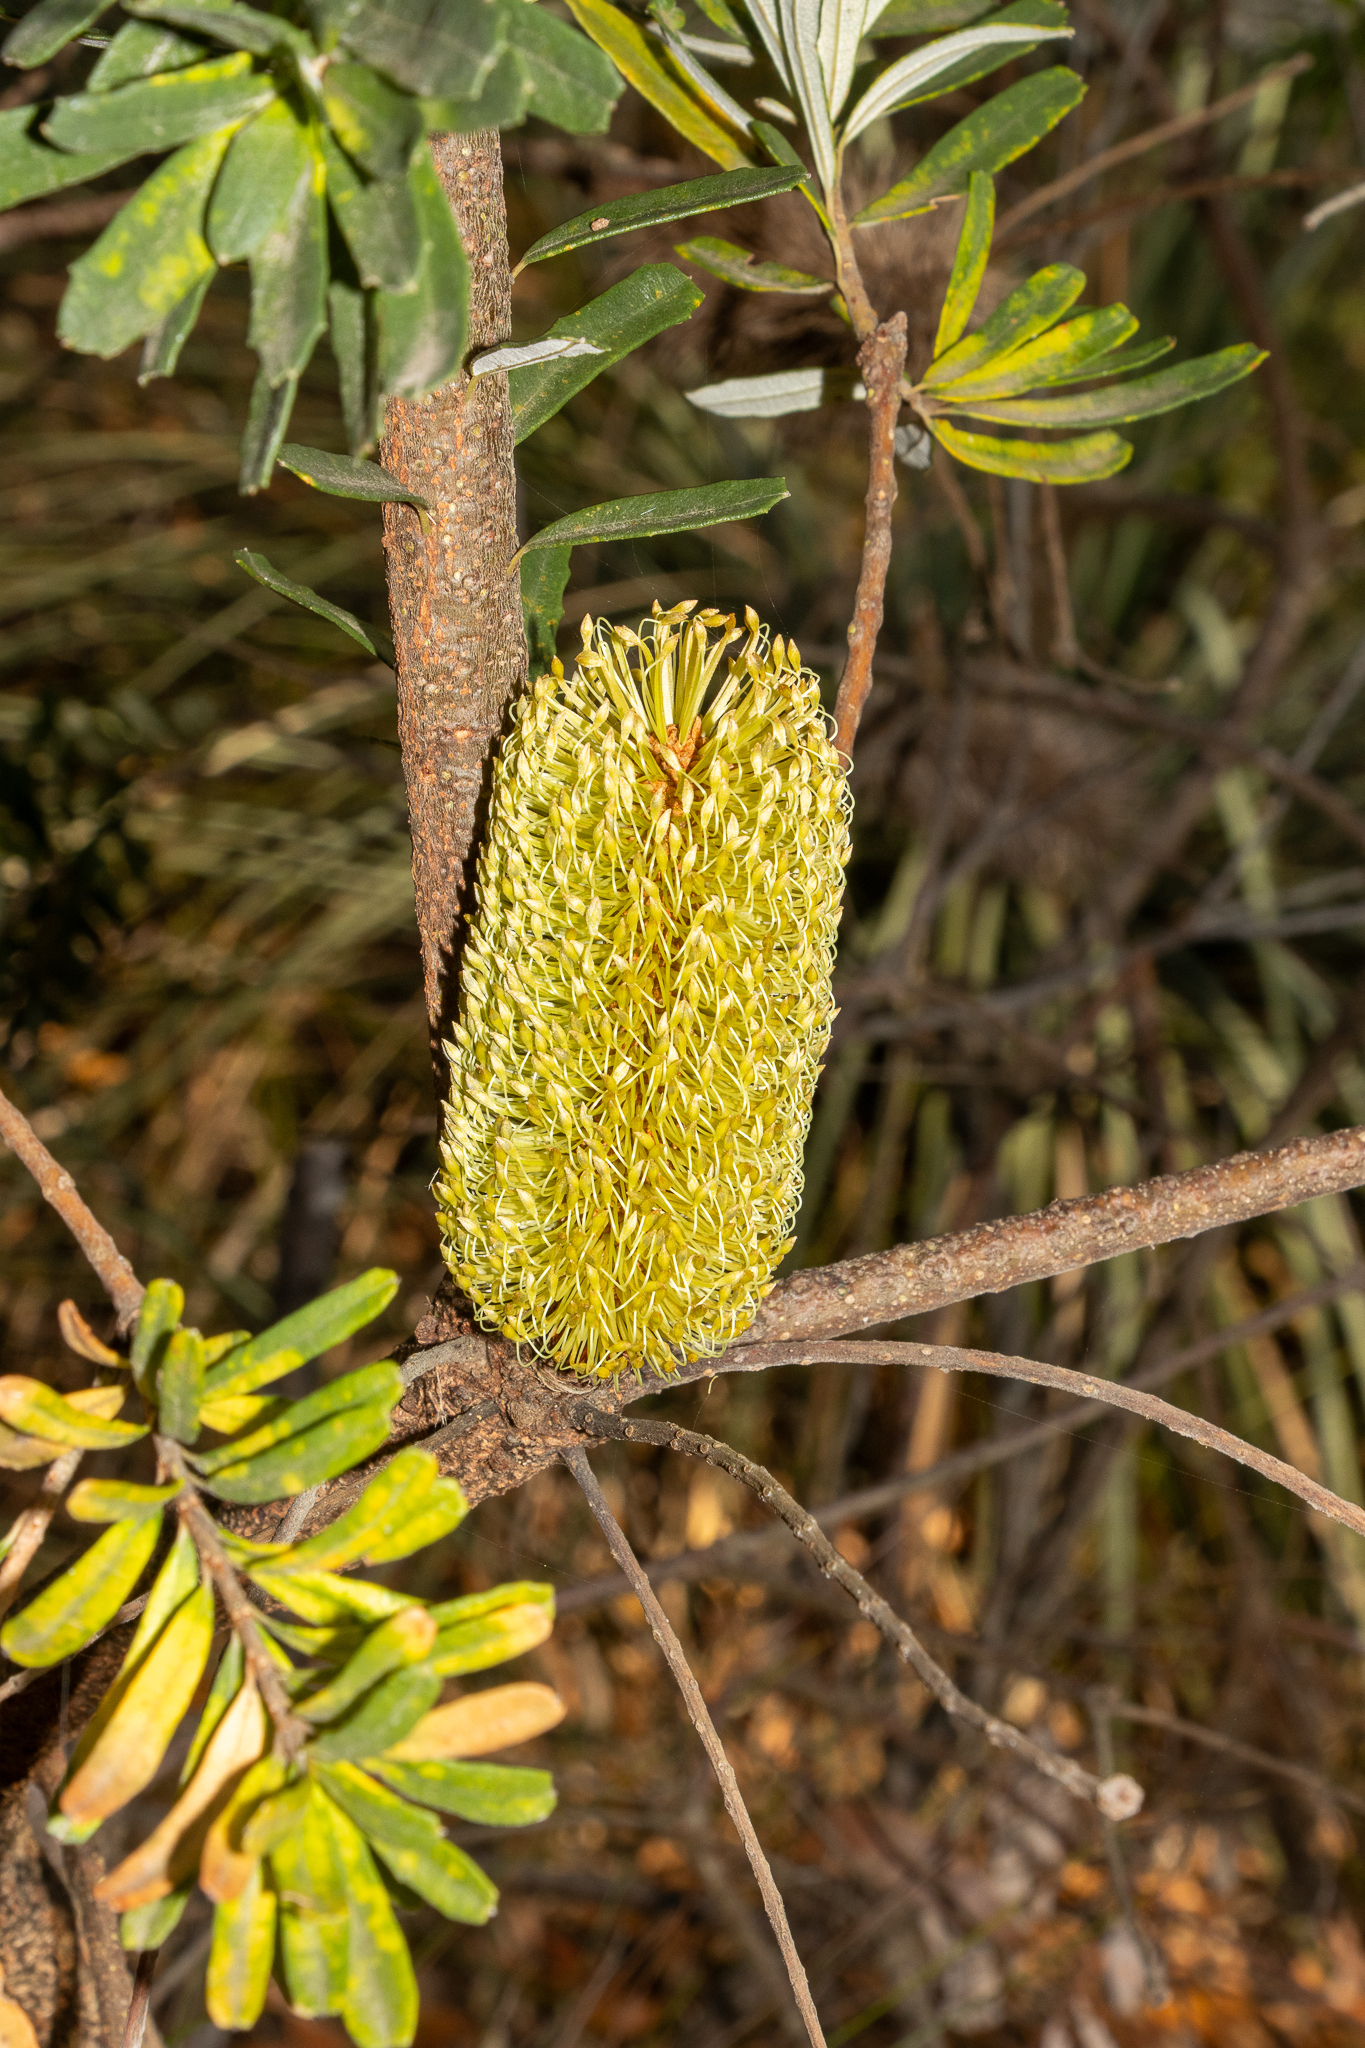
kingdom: Plantae
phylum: Tracheophyta
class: Magnoliopsida
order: Proteales
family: Proteaceae
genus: Banksia
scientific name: Banksia marginata
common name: Silver banksia
